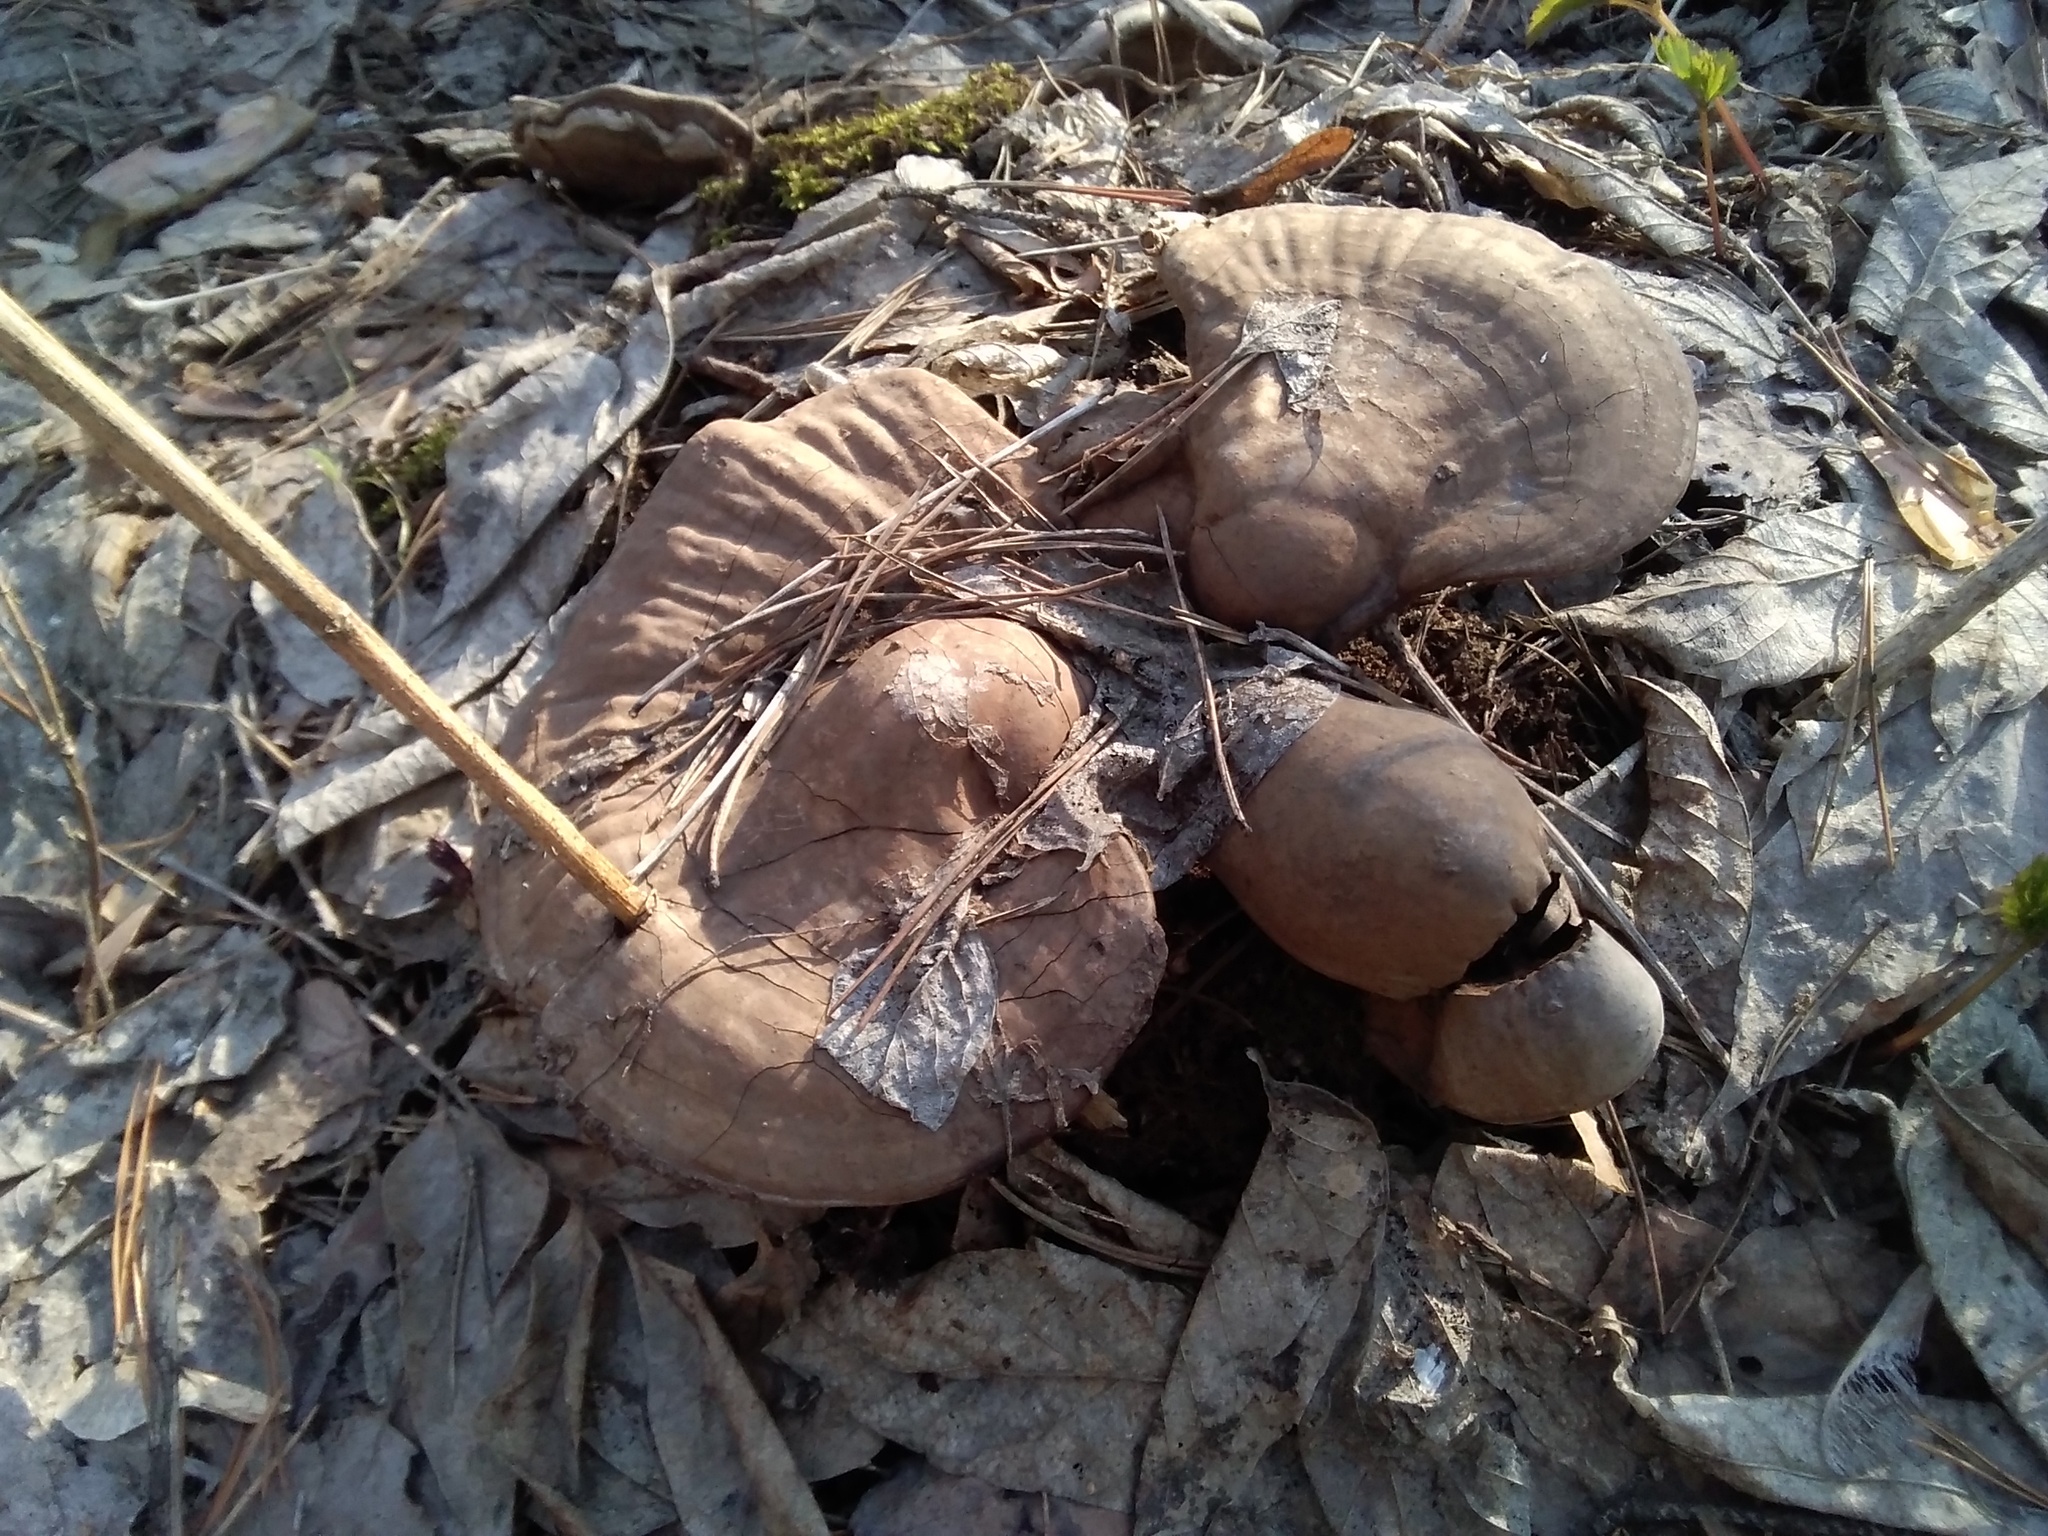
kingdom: Fungi
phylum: Basidiomycota
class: Agaricomycetes
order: Polyporales
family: Polyporaceae
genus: Ganoderma
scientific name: Ganoderma applanatum
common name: Artist's bracket
